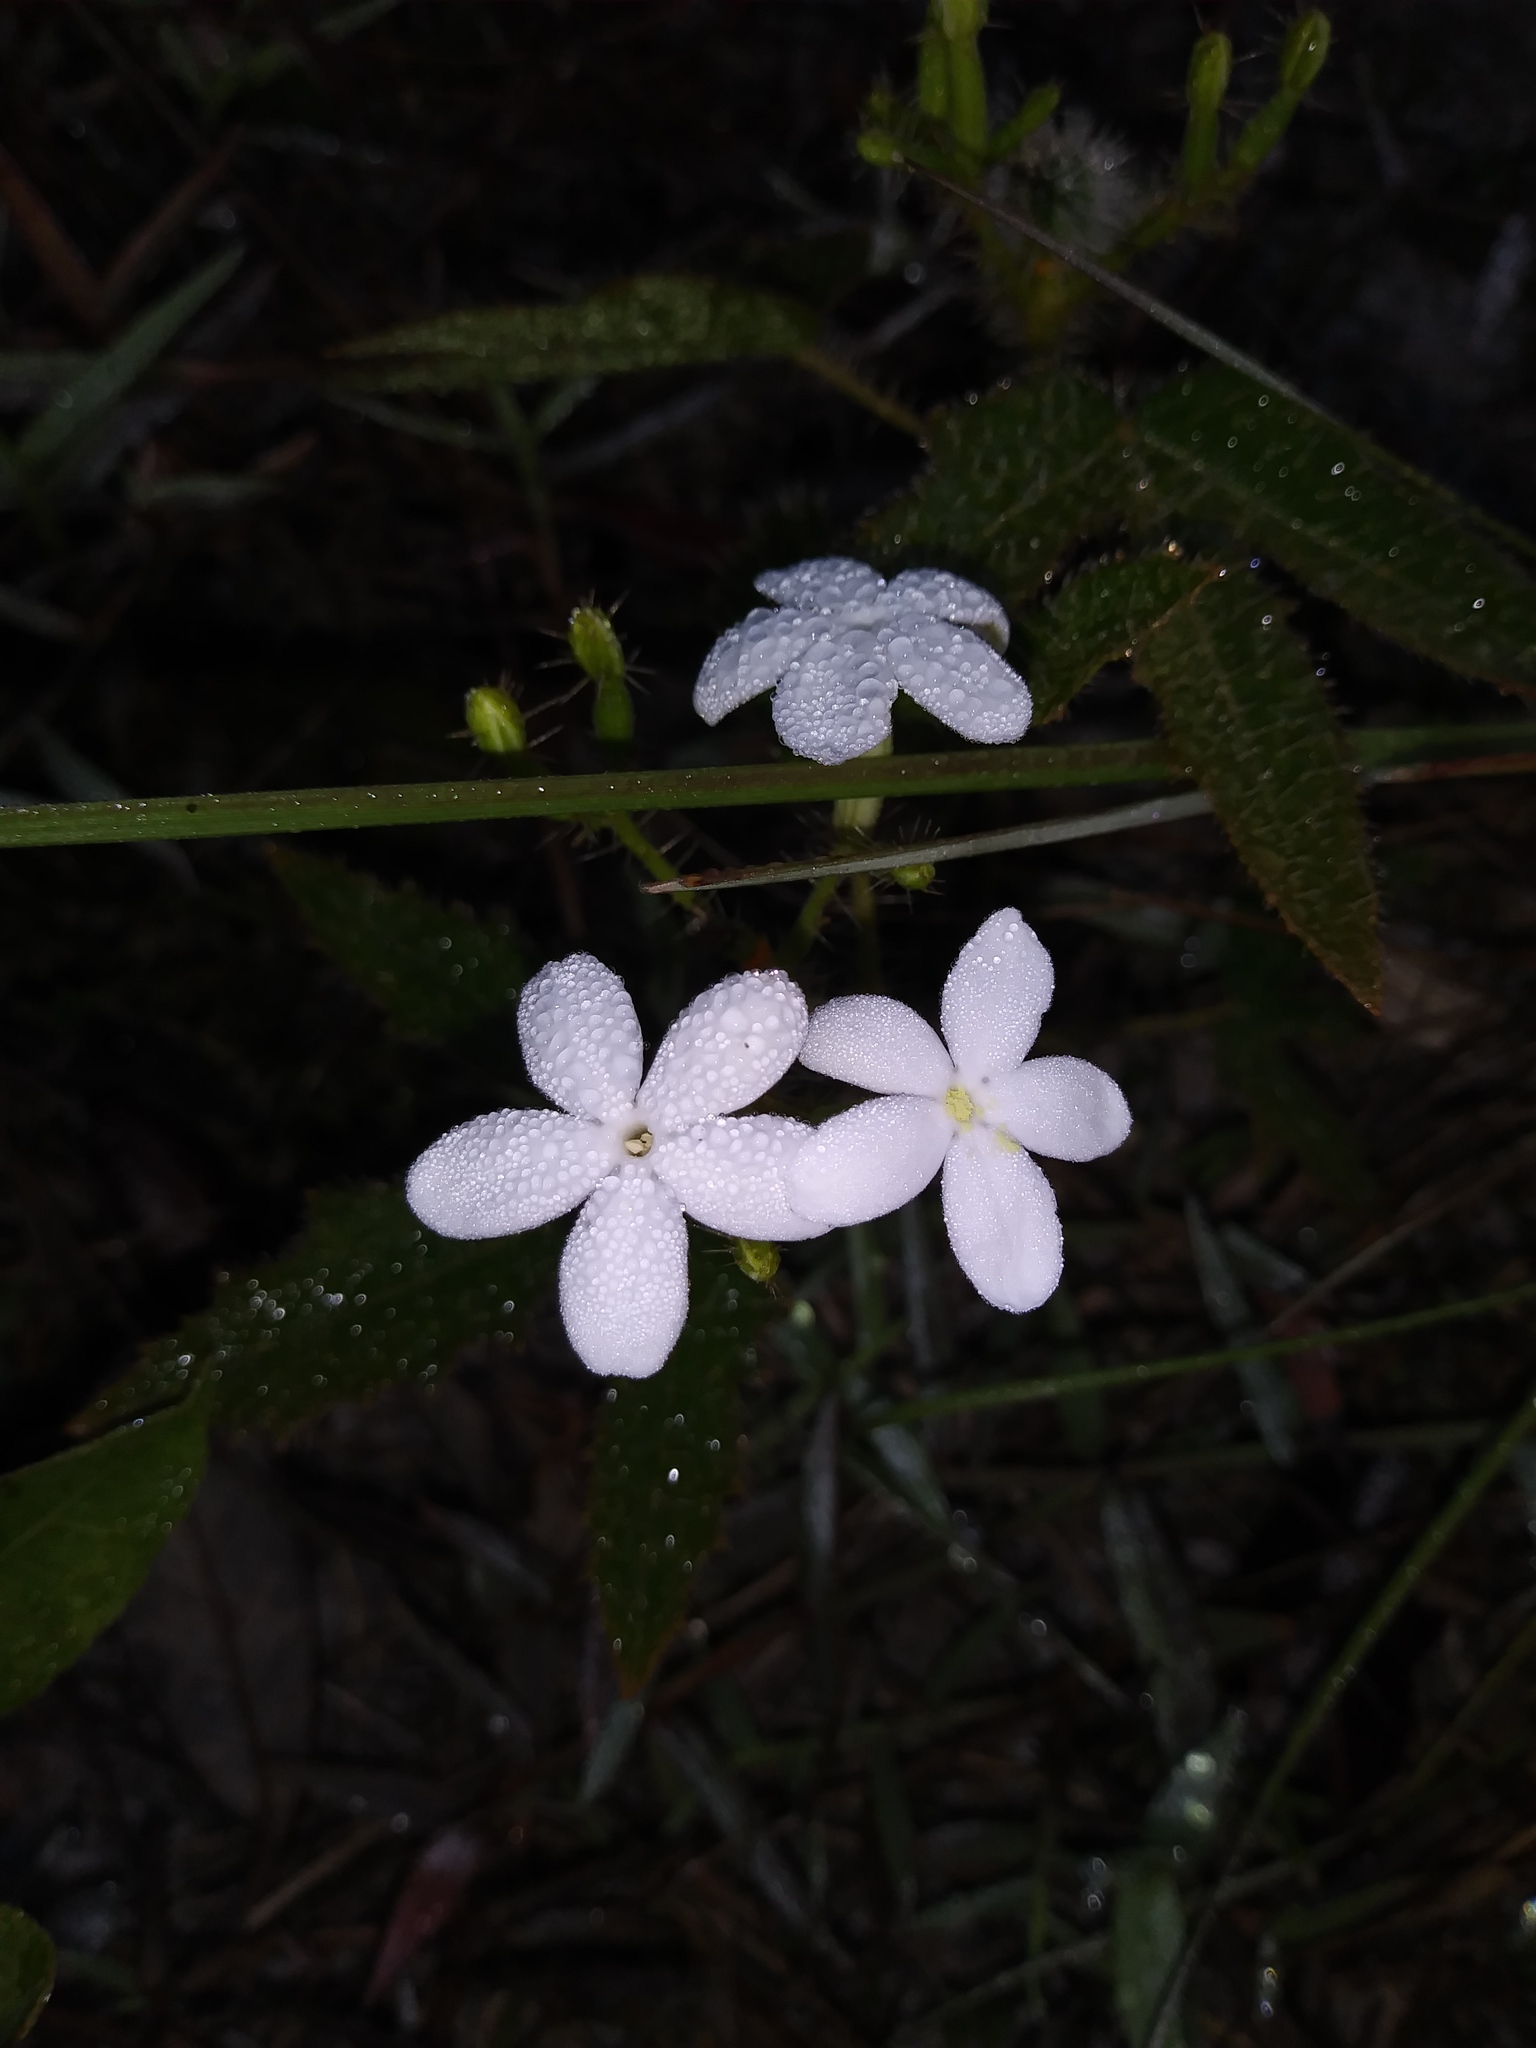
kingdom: Plantae
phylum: Tracheophyta
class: Magnoliopsida
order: Malpighiales
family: Euphorbiaceae
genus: Cnidoscolus
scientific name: Cnidoscolus stimulosus
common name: Bull-nettle
